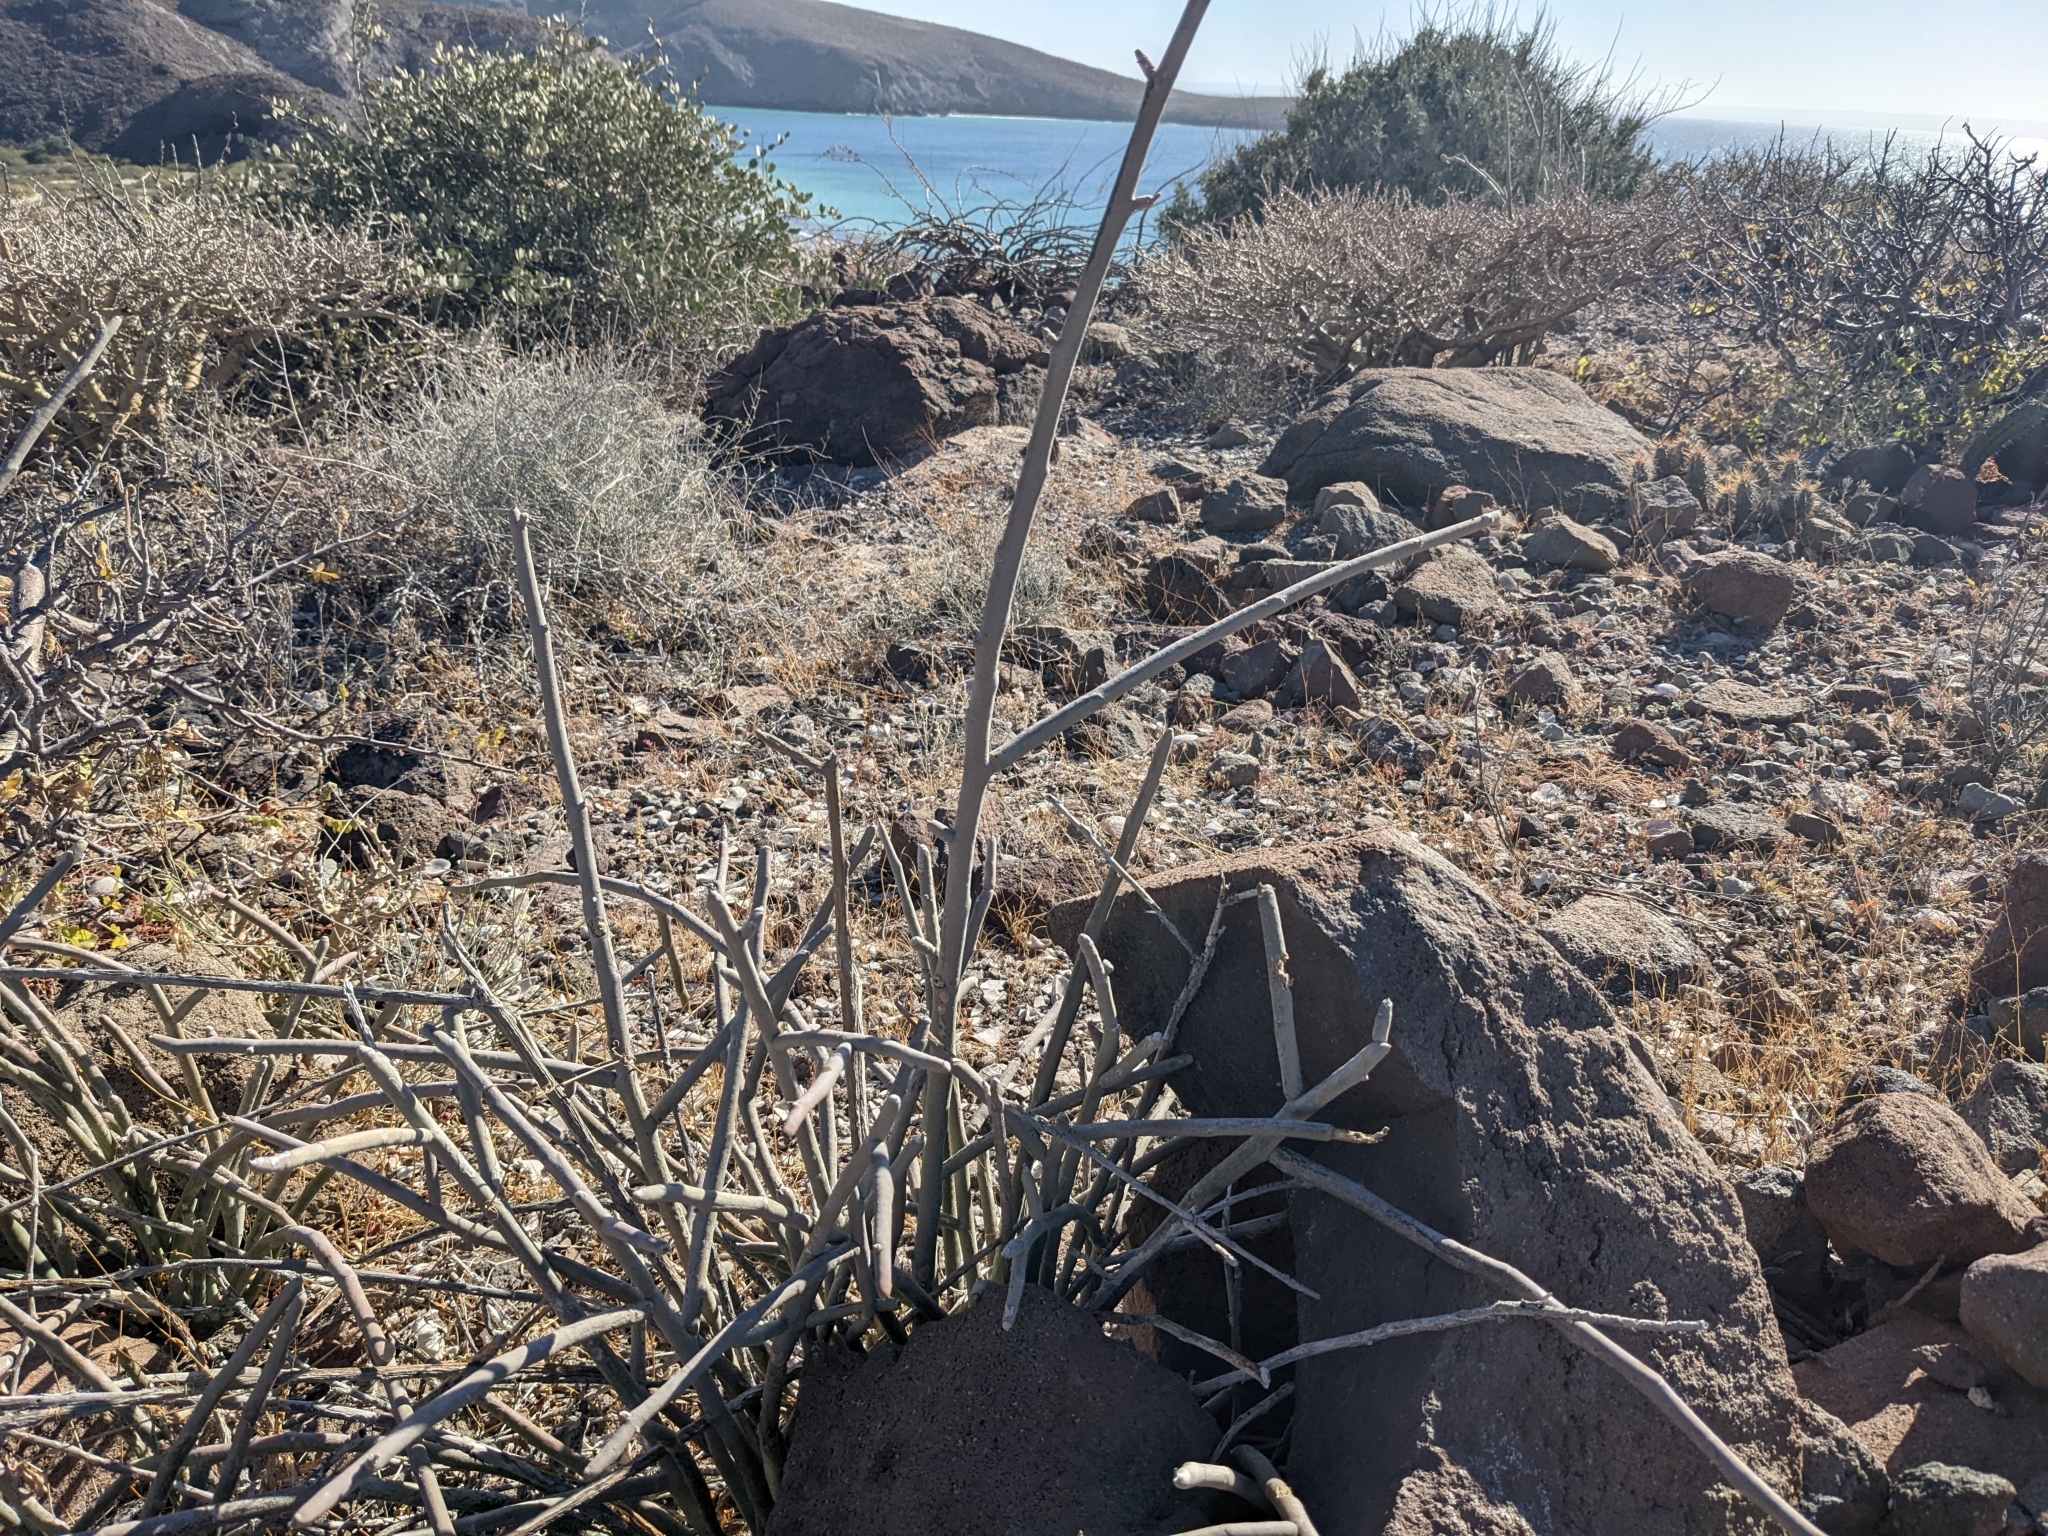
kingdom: Plantae
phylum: Tracheophyta
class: Magnoliopsida
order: Malpighiales
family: Euphorbiaceae
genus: Euphorbia
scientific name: Euphorbia lomelii
